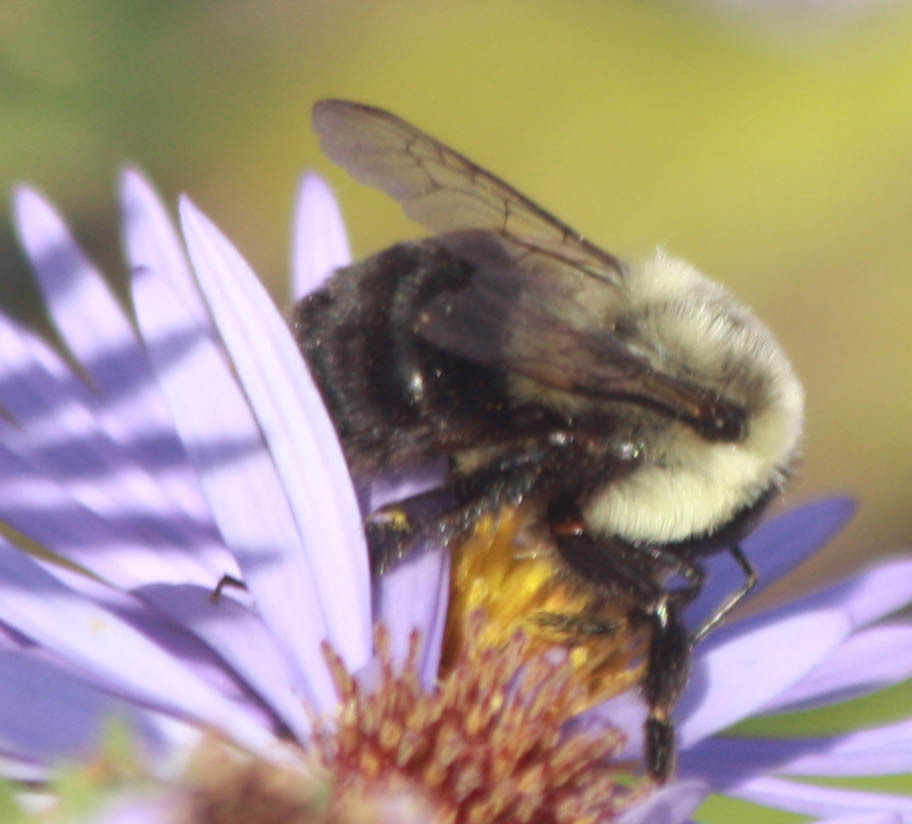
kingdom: Animalia
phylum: Arthropoda
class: Insecta
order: Hymenoptera
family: Apidae
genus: Bombus
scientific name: Bombus impatiens
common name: Common eastern bumble bee
